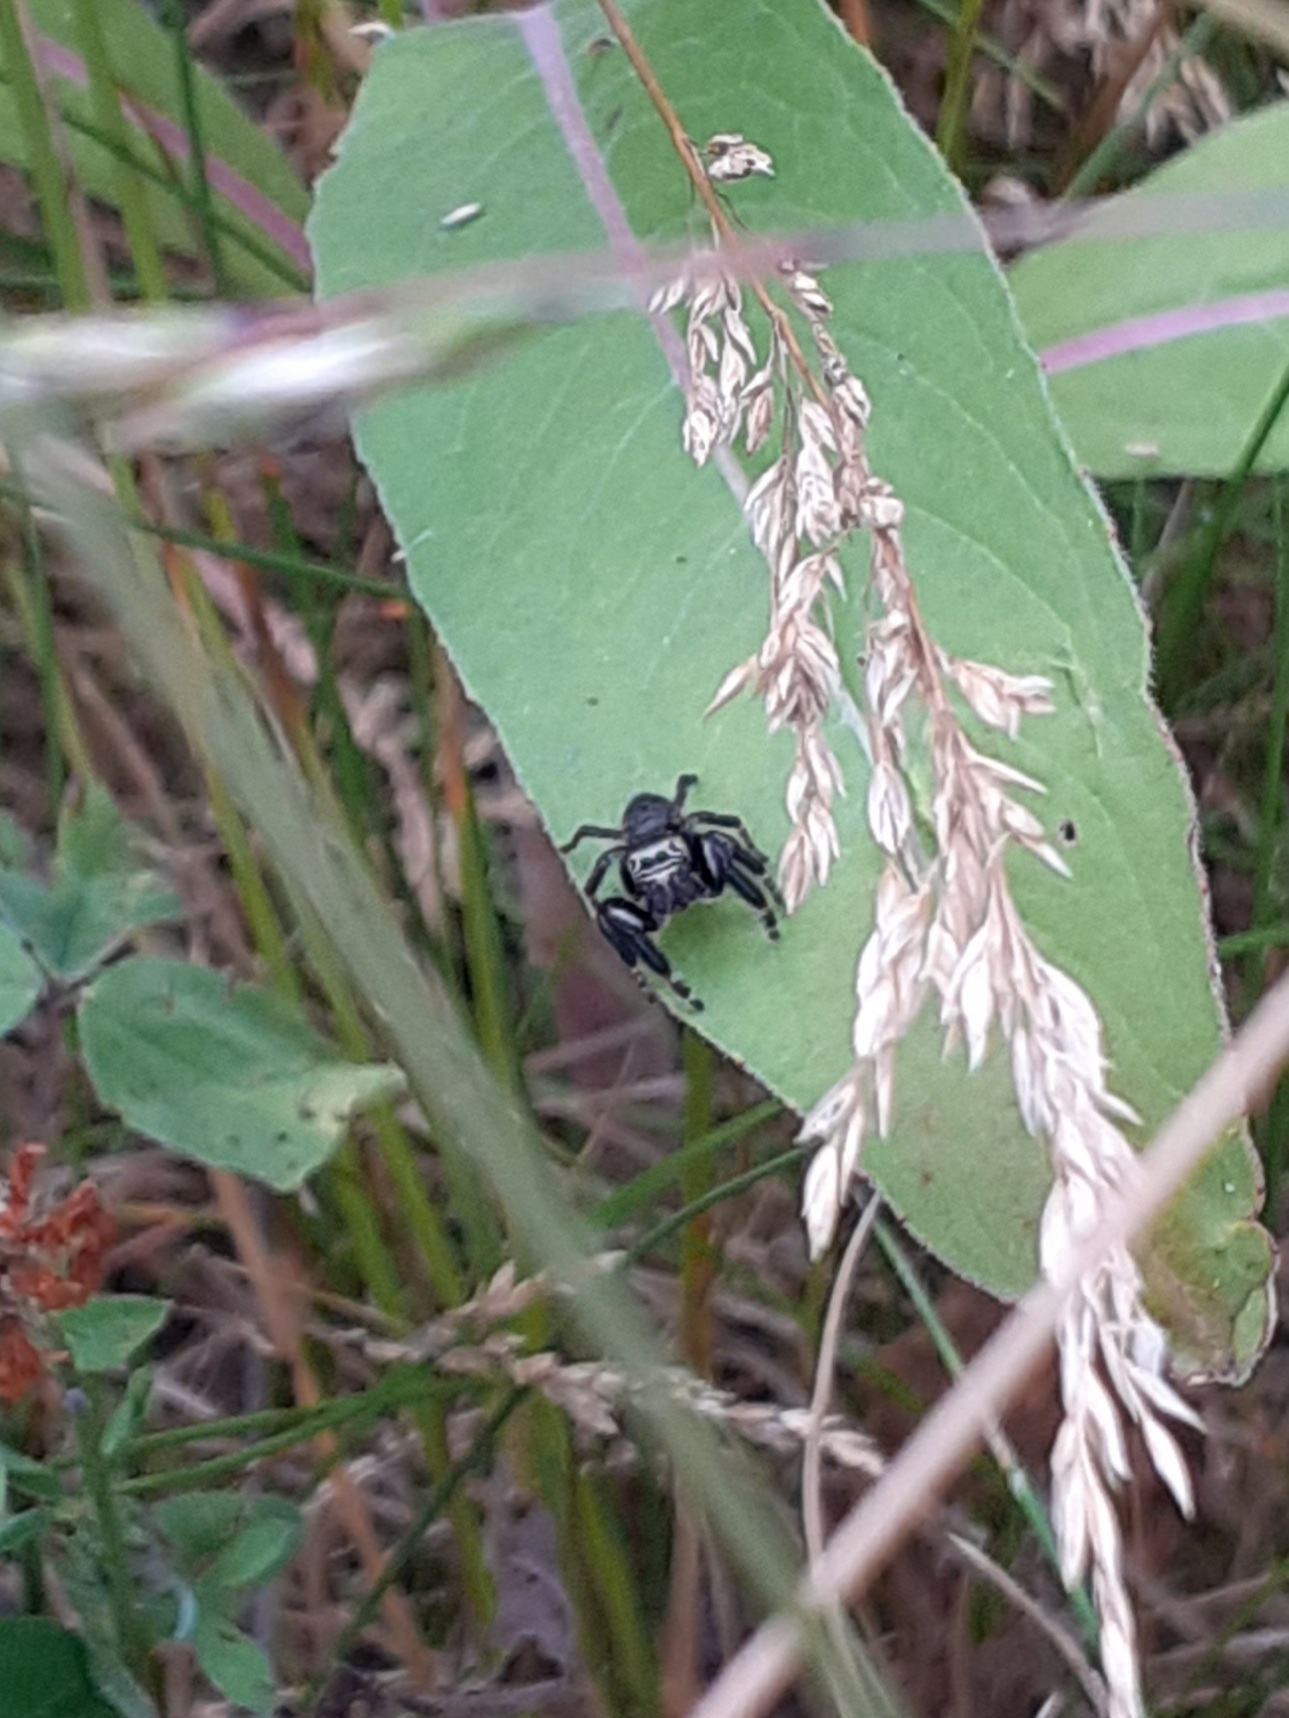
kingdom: Animalia
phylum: Arthropoda
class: Arachnida
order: Araneae
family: Salticidae
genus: Evarcha
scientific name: Evarcha arcuata
